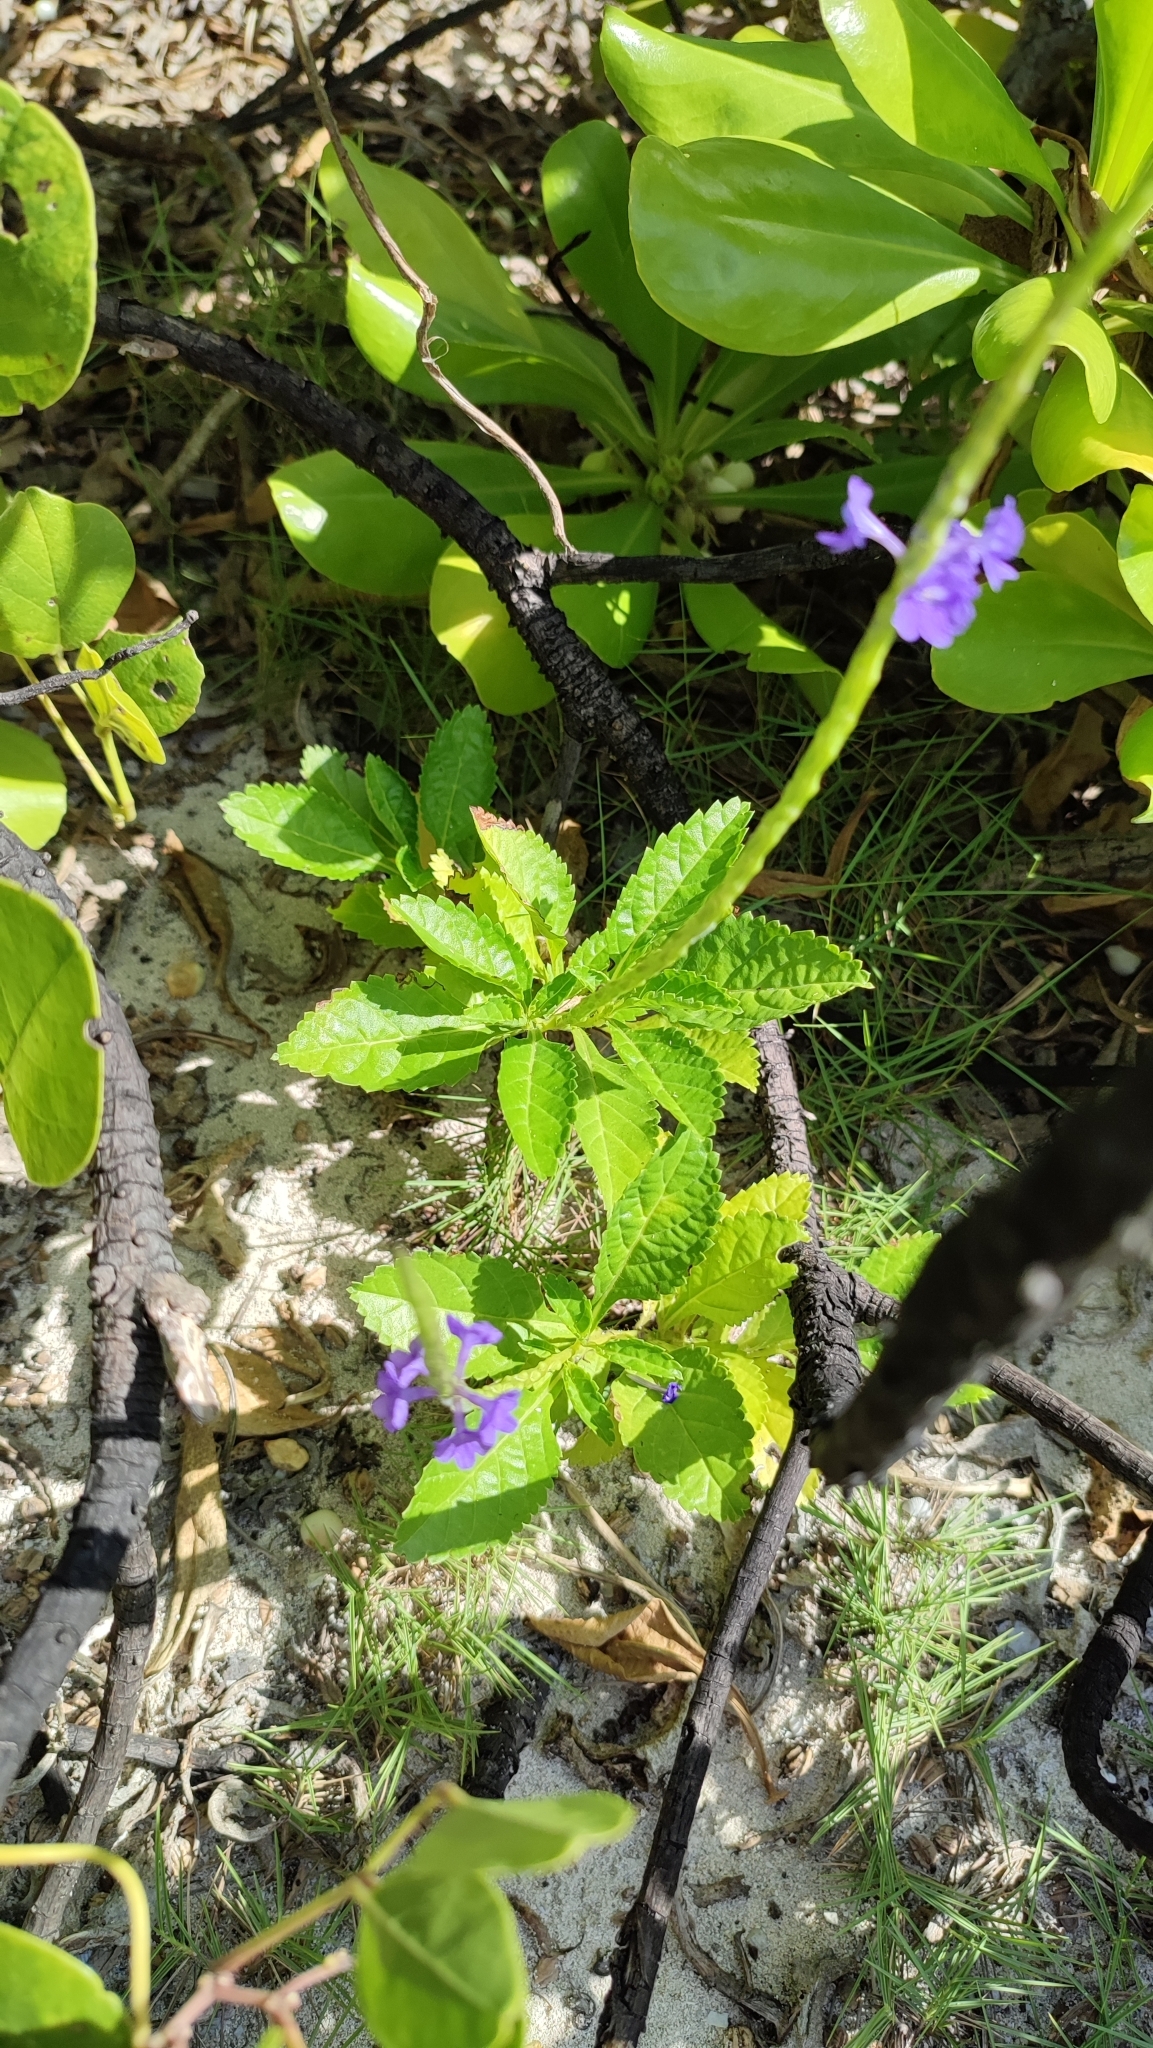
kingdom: Plantae
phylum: Tracheophyta
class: Magnoliopsida
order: Lamiales
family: Verbenaceae
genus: Stachytarpheta
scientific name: Stachytarpheta jamaicensis
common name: Light-blue snakeweed
